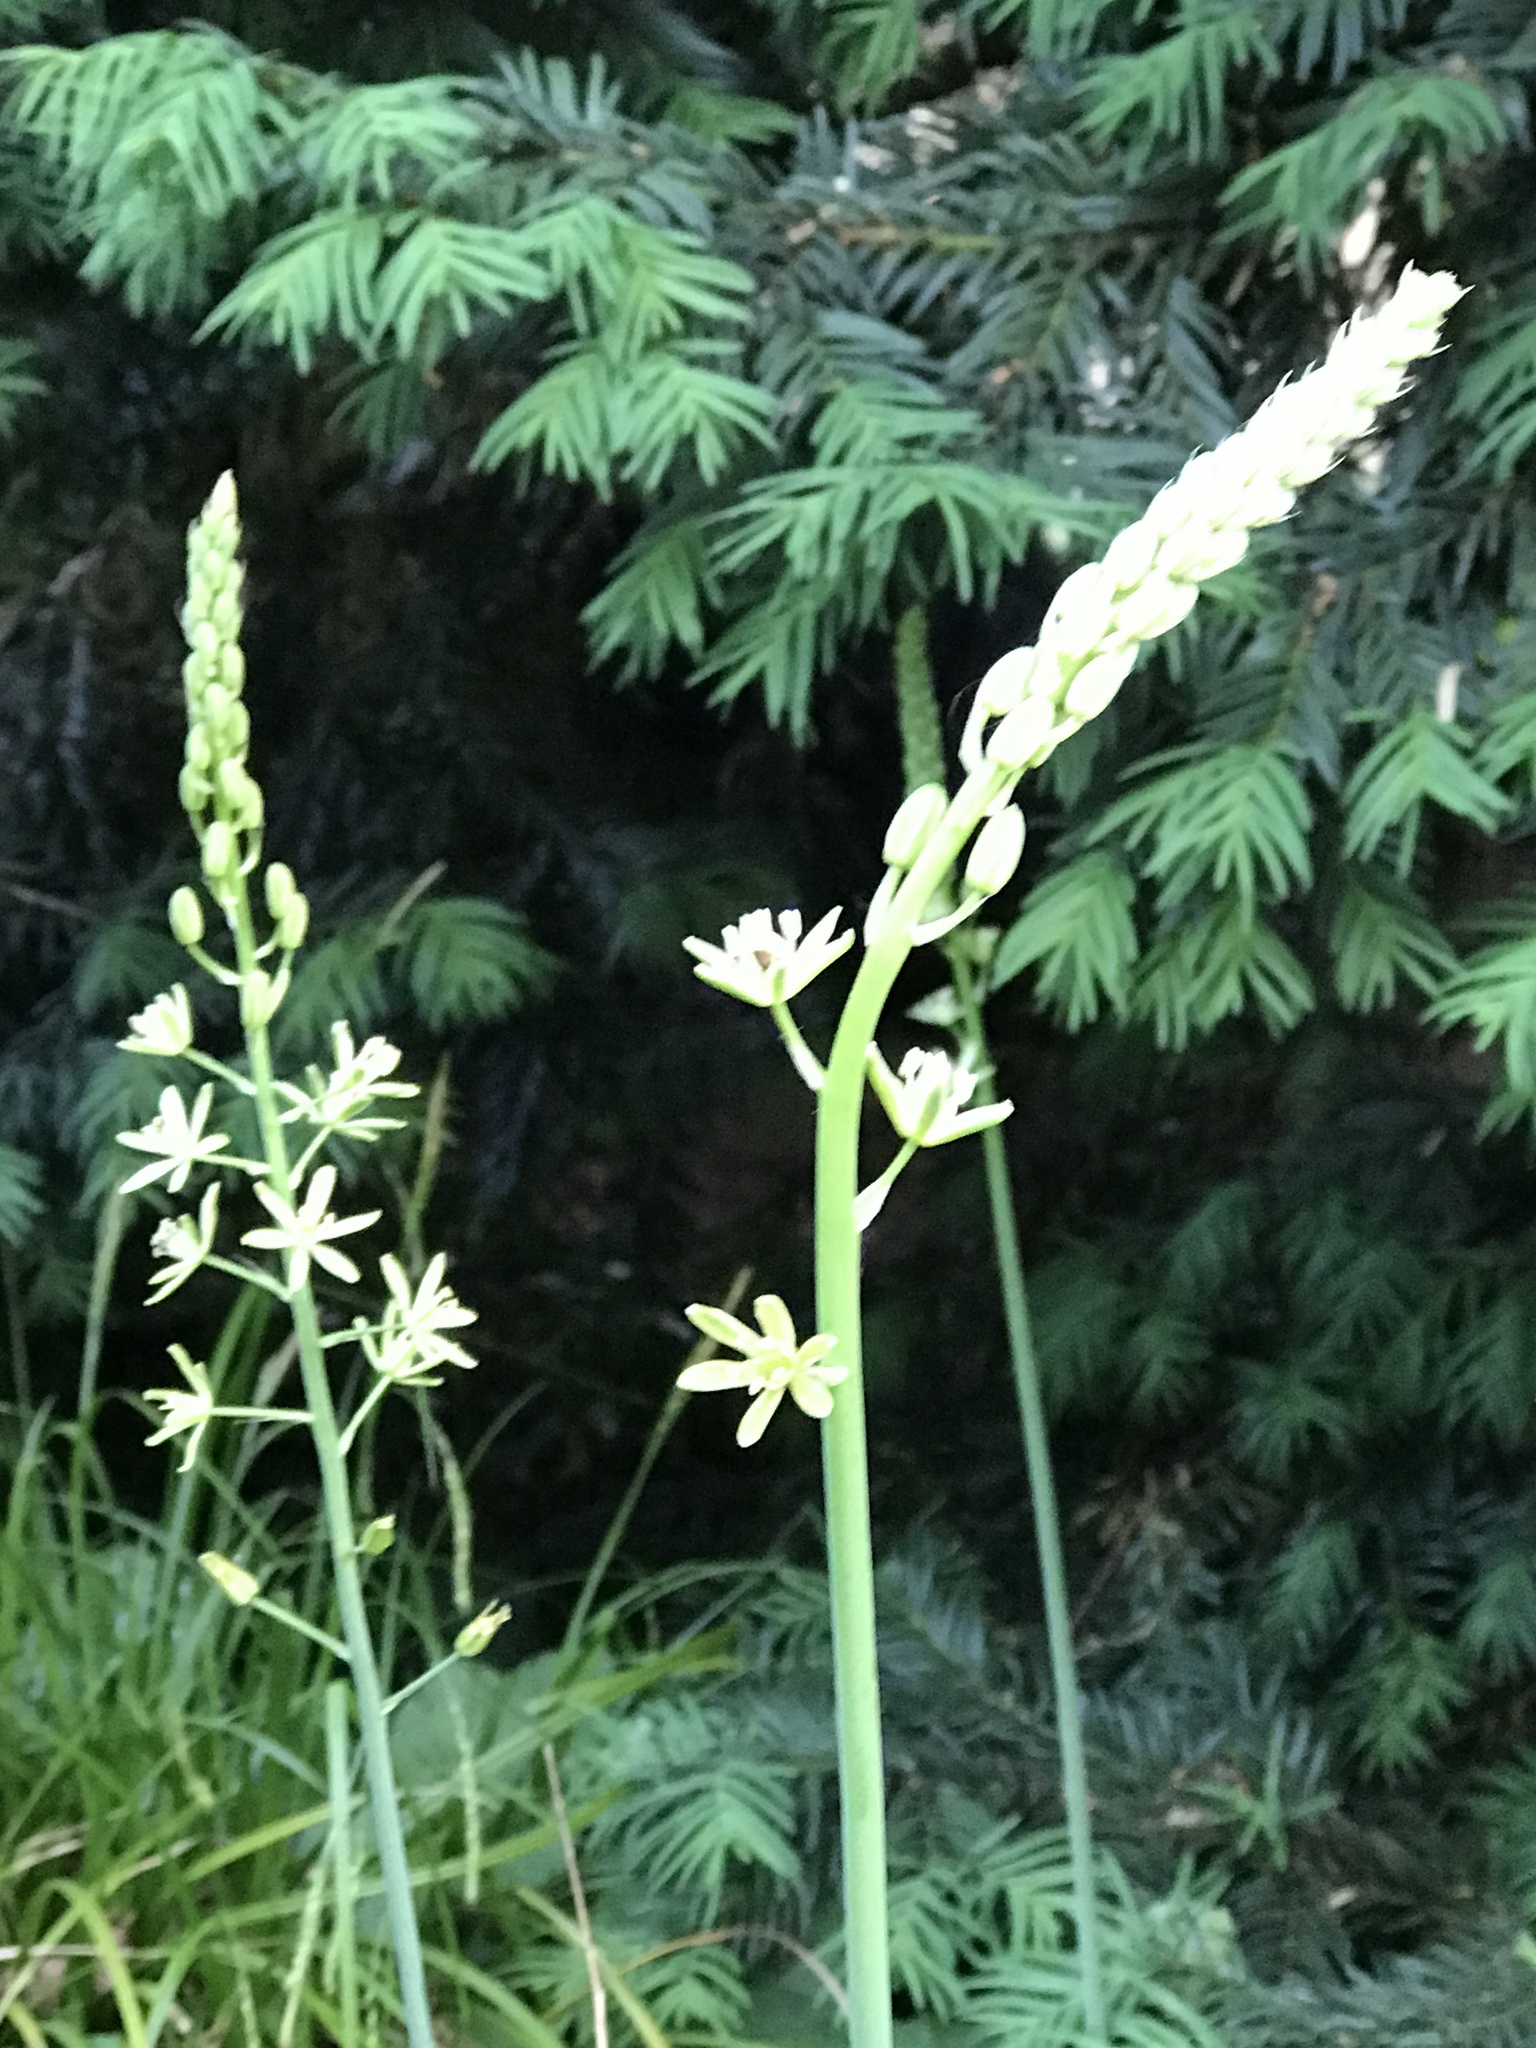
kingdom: Plantae
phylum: Tracheophyta
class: Liliopsida
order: Asparagales
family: Asparagaceae
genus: Ornithogalum
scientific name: Ornithogalum pyrenaicum
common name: Spiked star-of-bethlehem
